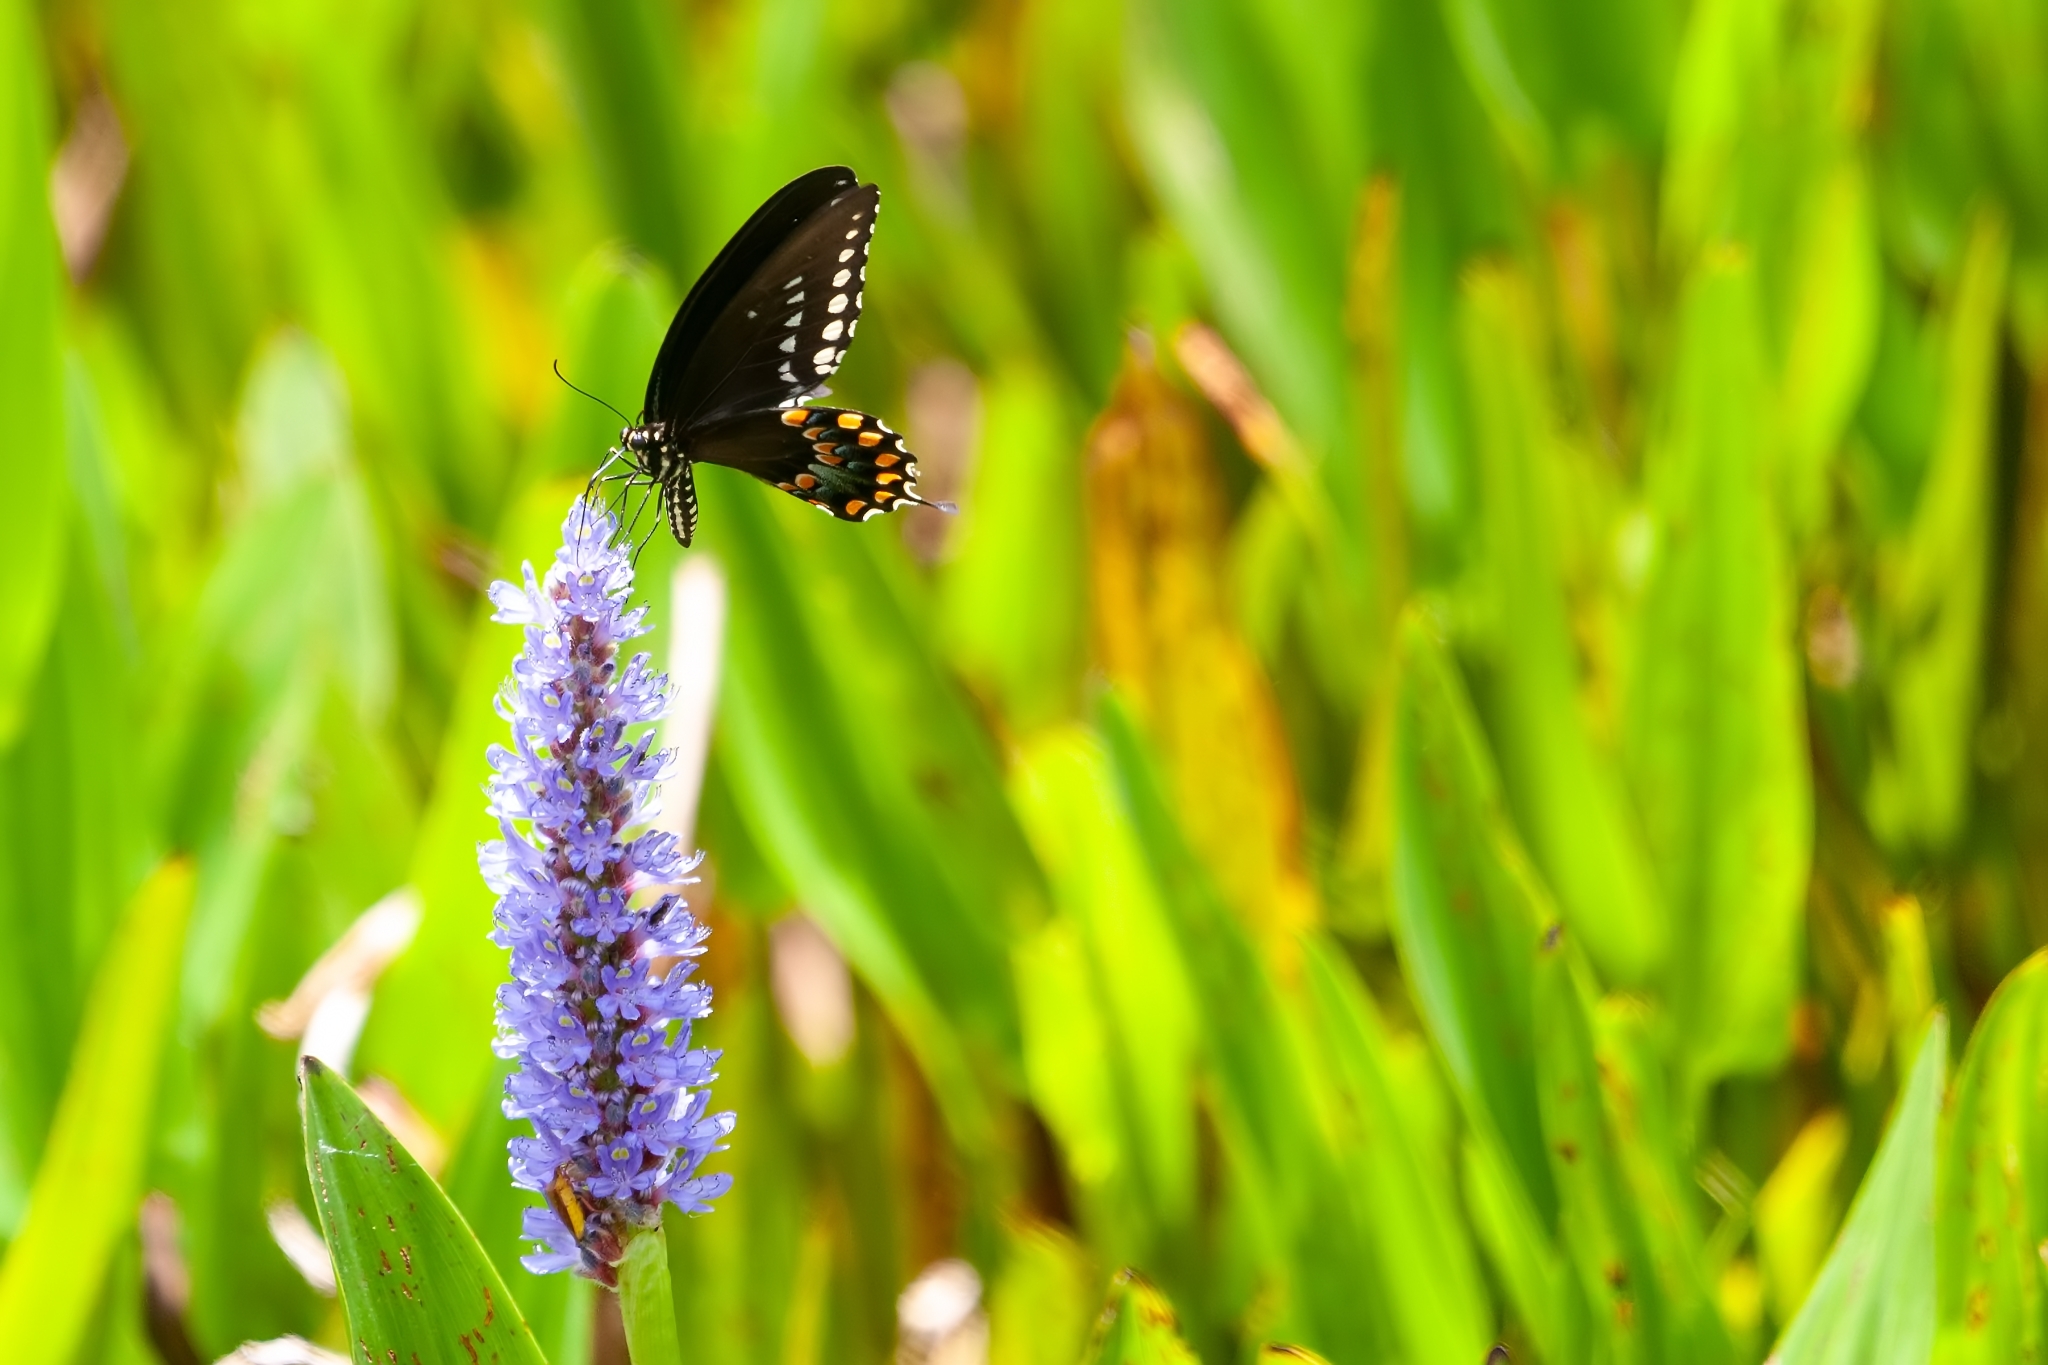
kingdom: Animalia
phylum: Arthropoda
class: Insecta
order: Lepidoptera
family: Papilionidae
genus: Papilio
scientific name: Papilio troilus
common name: Spicebush swallowtail
